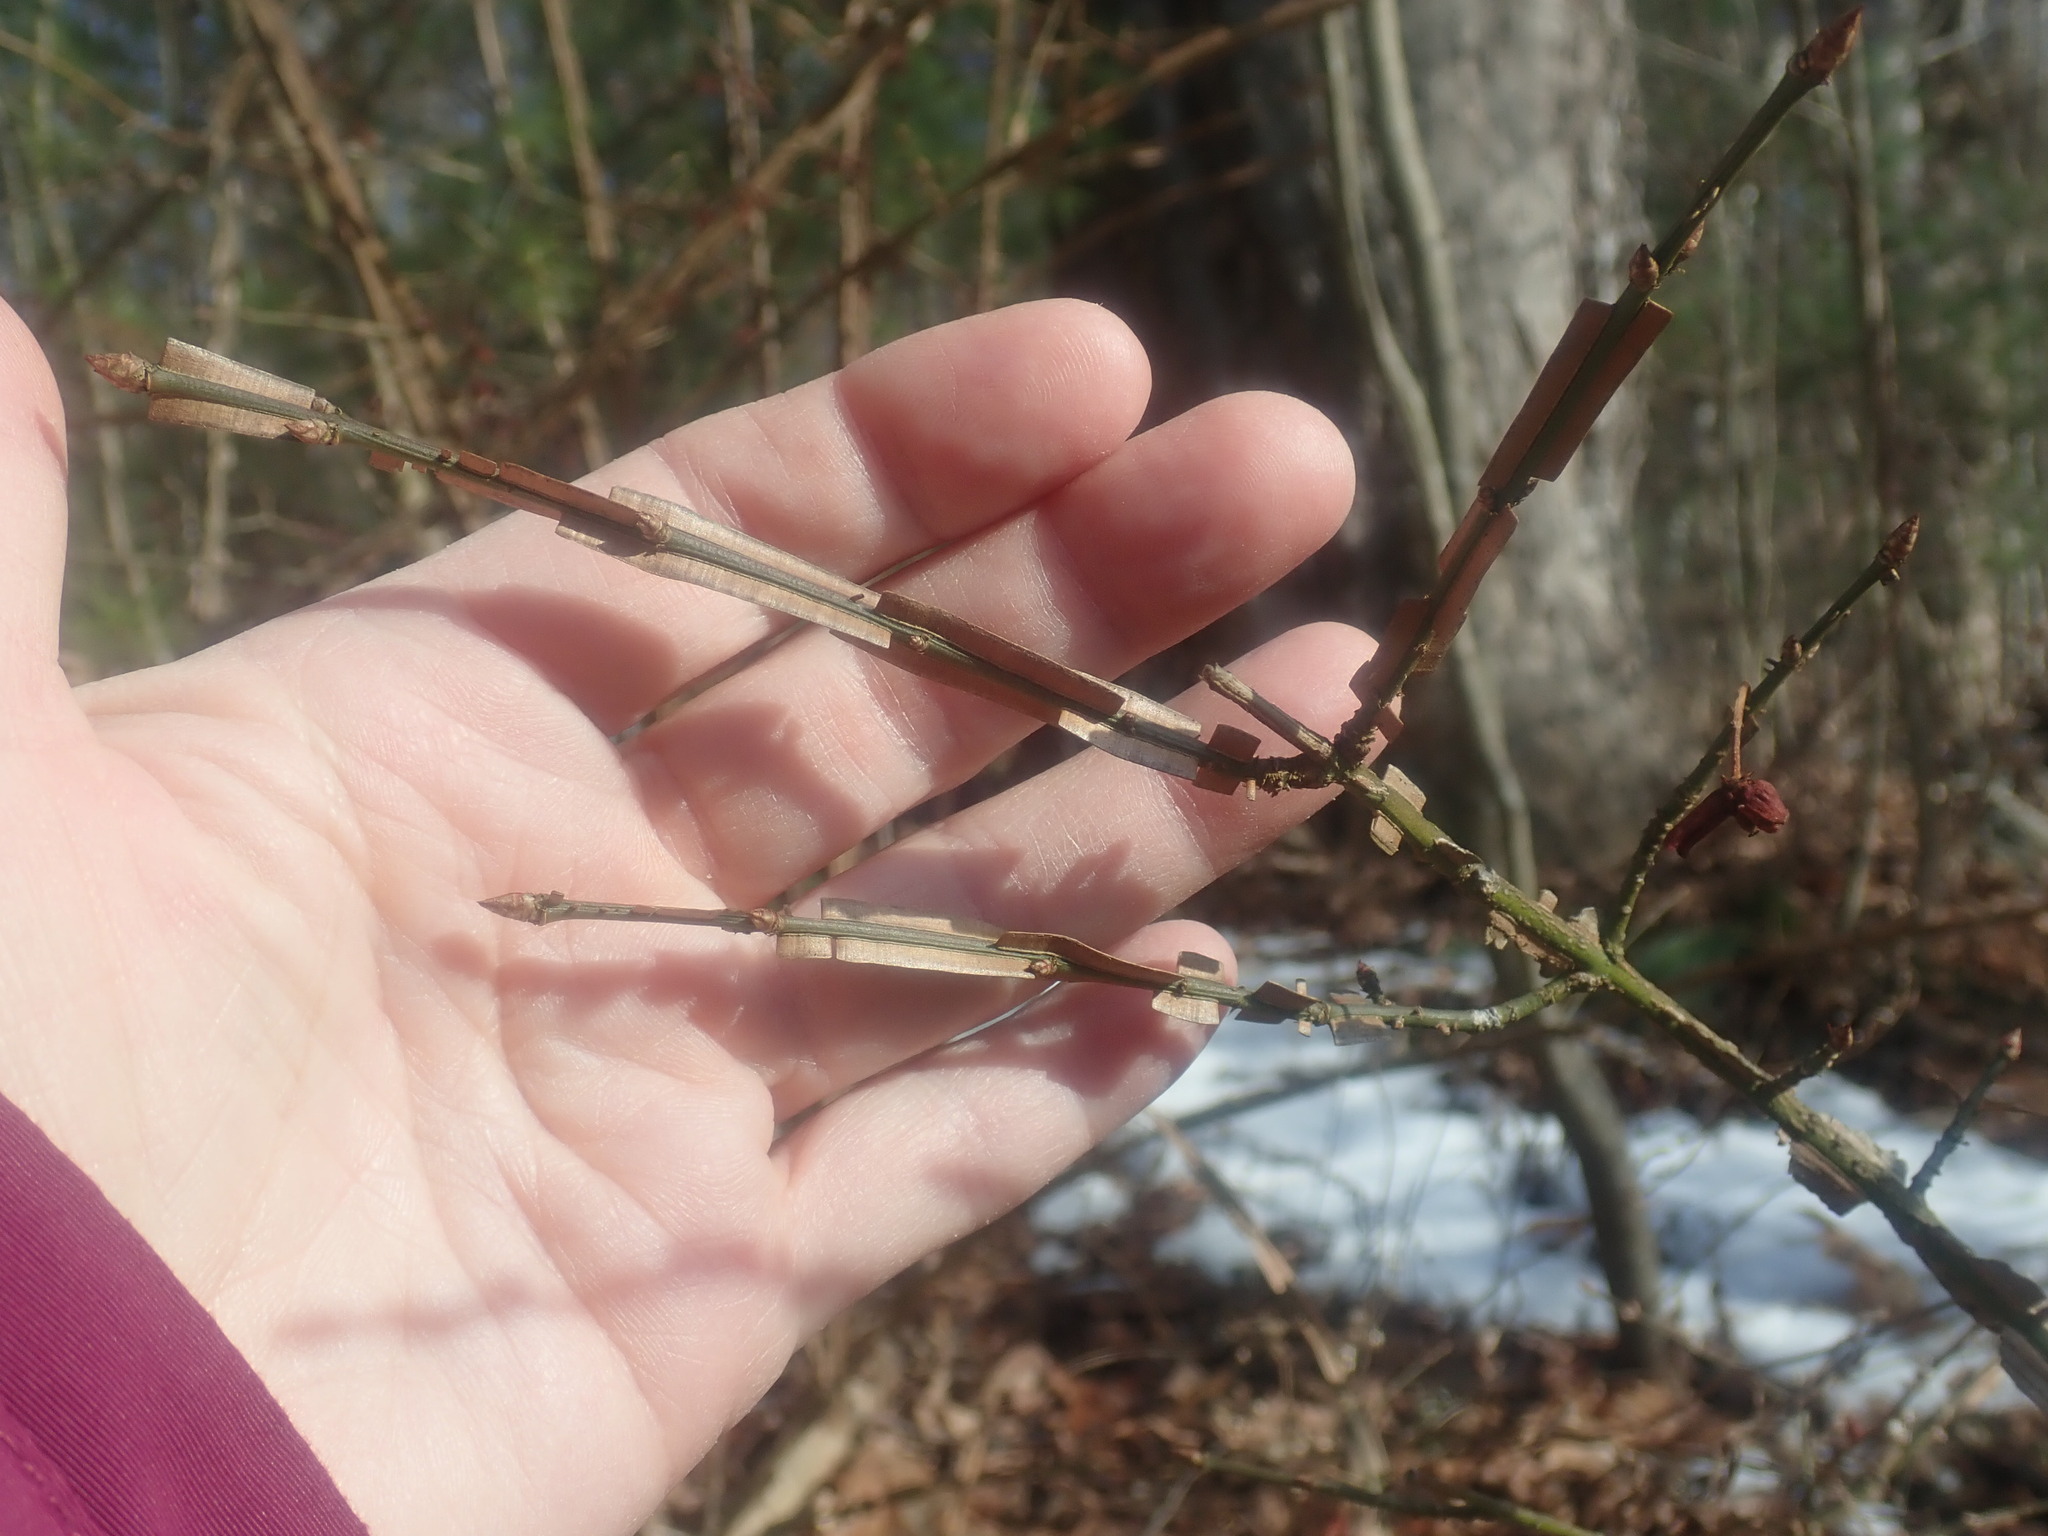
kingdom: Plantae
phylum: Tracheophyta
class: Magnoliopsida
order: Celastrales
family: Celastraceae
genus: Euonymus
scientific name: Euonymus alatus
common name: Winged euonymus
